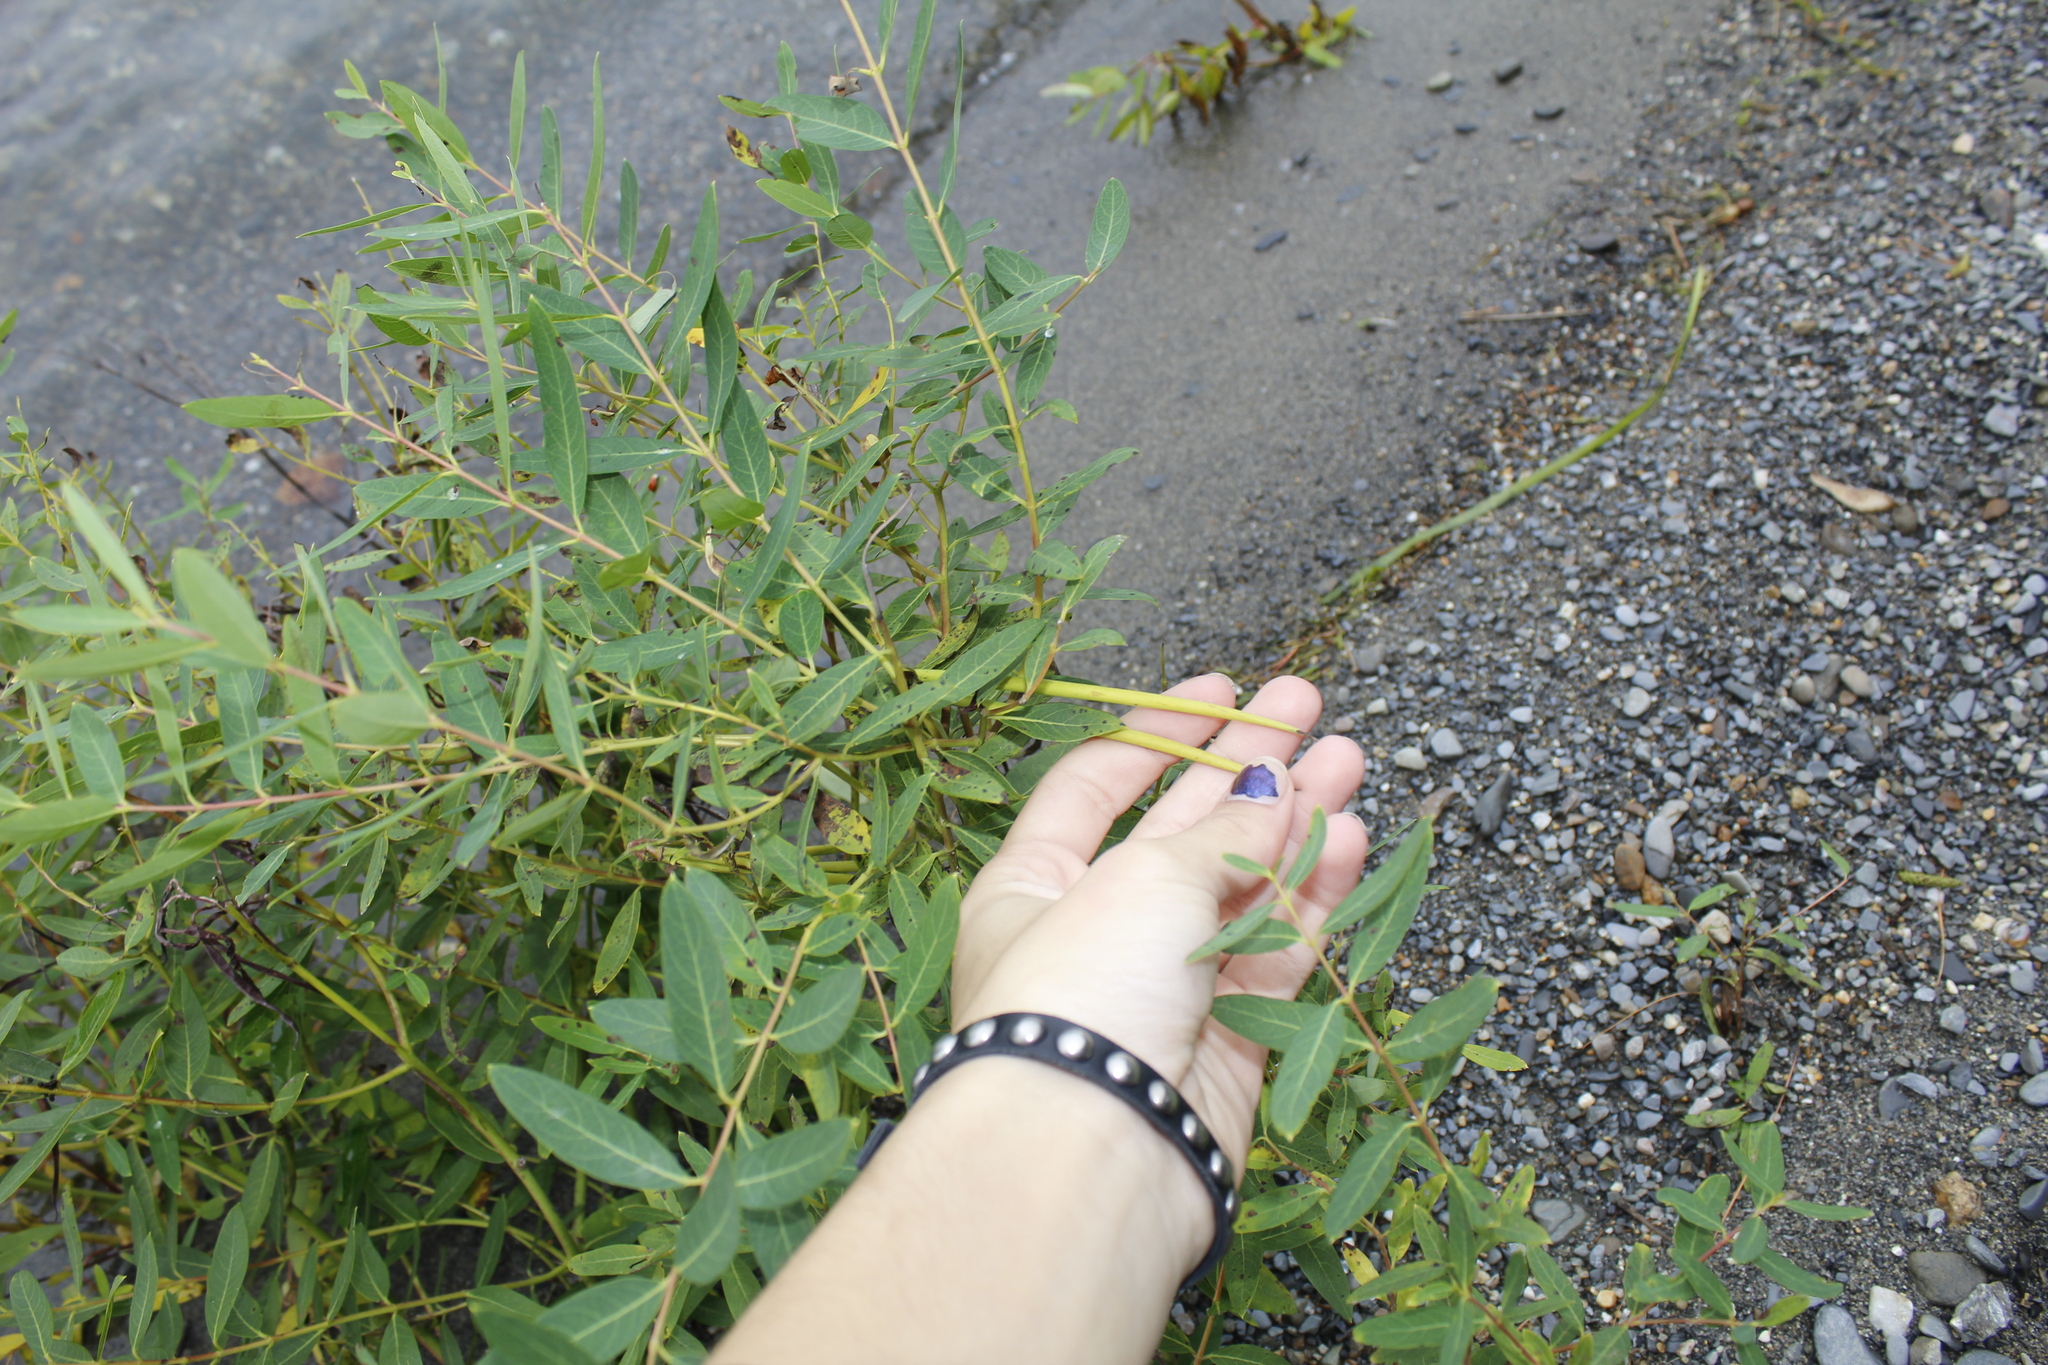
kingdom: Plantae
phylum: Tracheophyta
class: Magnoliopsida
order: Gentianales
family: Apocynaceae
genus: Apocynum
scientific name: Apocynum cannabinum
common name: Hemp dogbane
